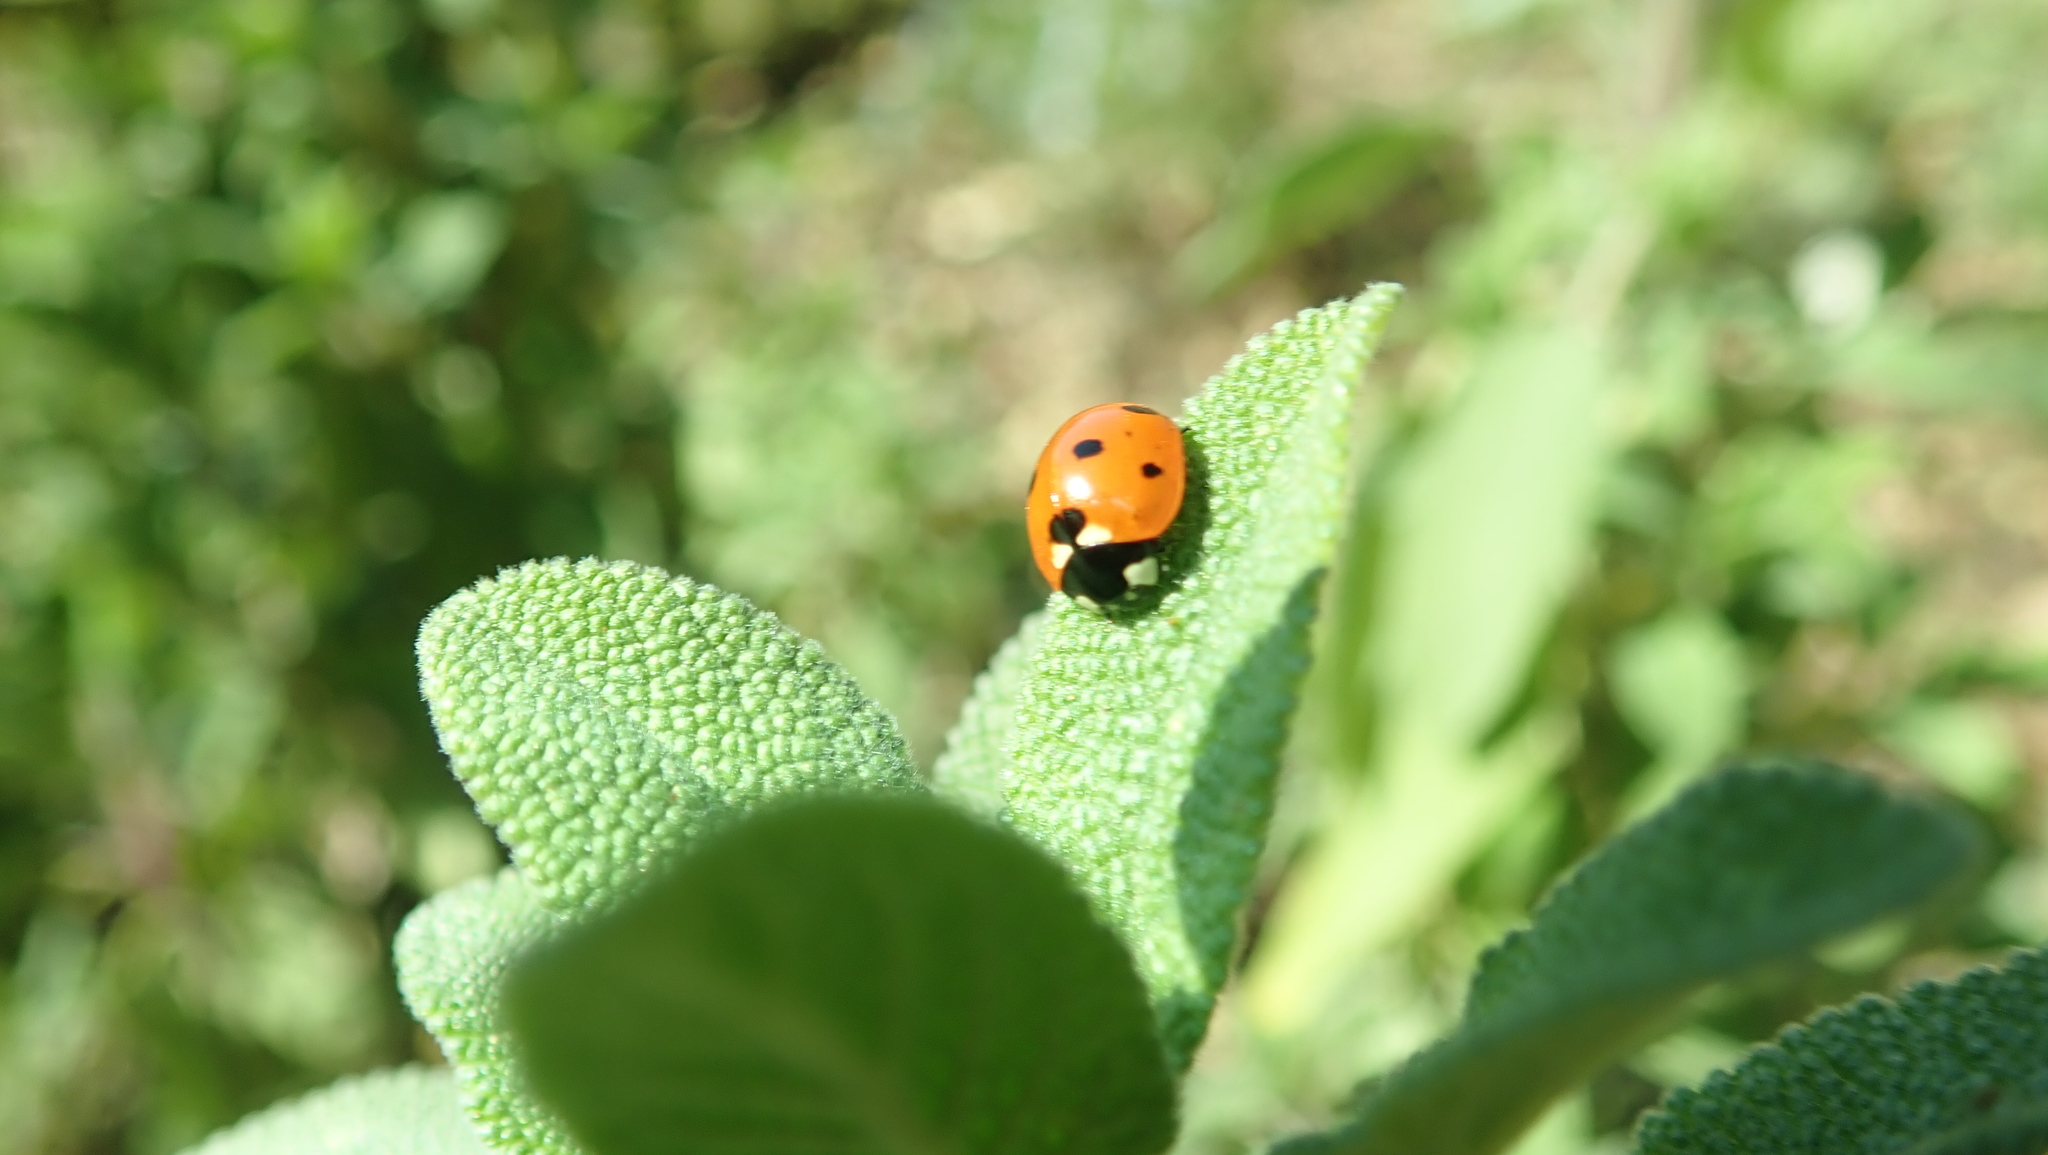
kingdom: Animalia
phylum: Arthropoda
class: Insecta
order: Coleoptera
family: Coccinellidae
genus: Coccinella
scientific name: Coccinella septempunctata
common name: Sevenspotted lady beetle
